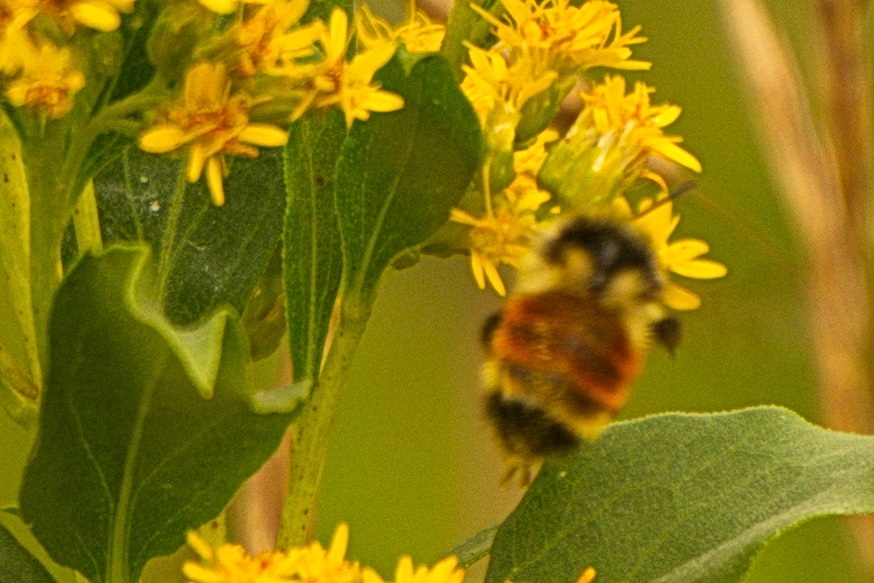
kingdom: Animalia
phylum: Arthropoda
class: Insecta
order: Hymenoptera
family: Apidae
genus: Bombus
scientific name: Bombus ternarius
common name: Tri-colored bumble bee
